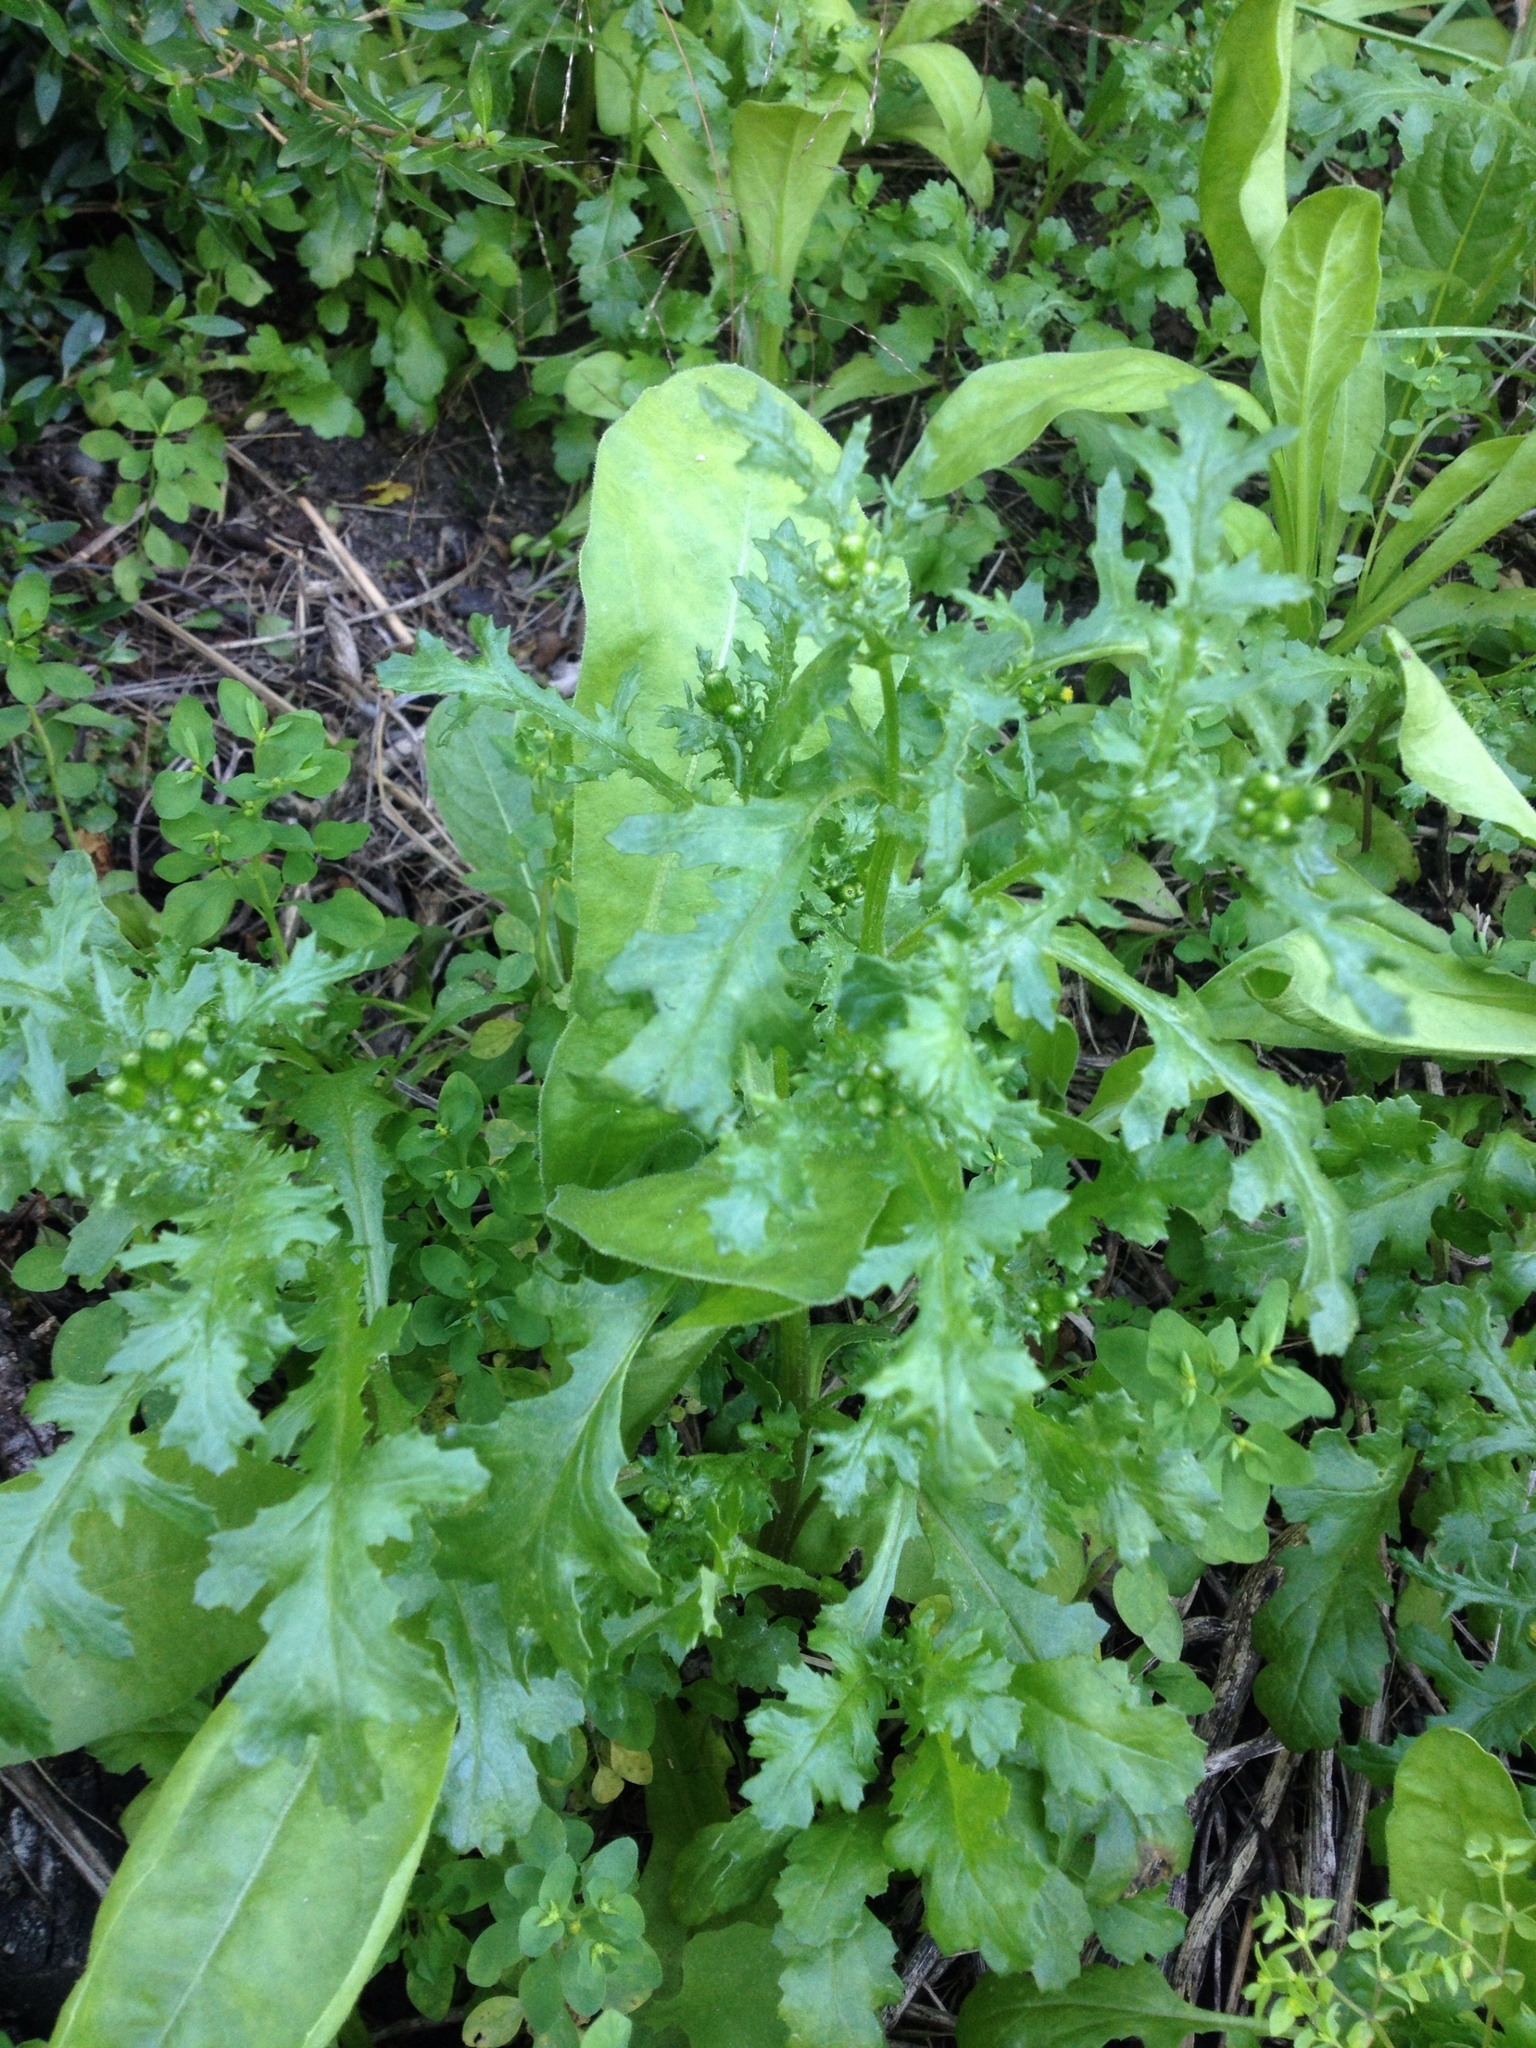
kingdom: Plantae
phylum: Tracheophyta
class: Magnoliopsida
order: Asterales
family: Asteraceae
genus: Senecio
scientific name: Senecio vulgaris
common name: Old-man-in-the-spring
